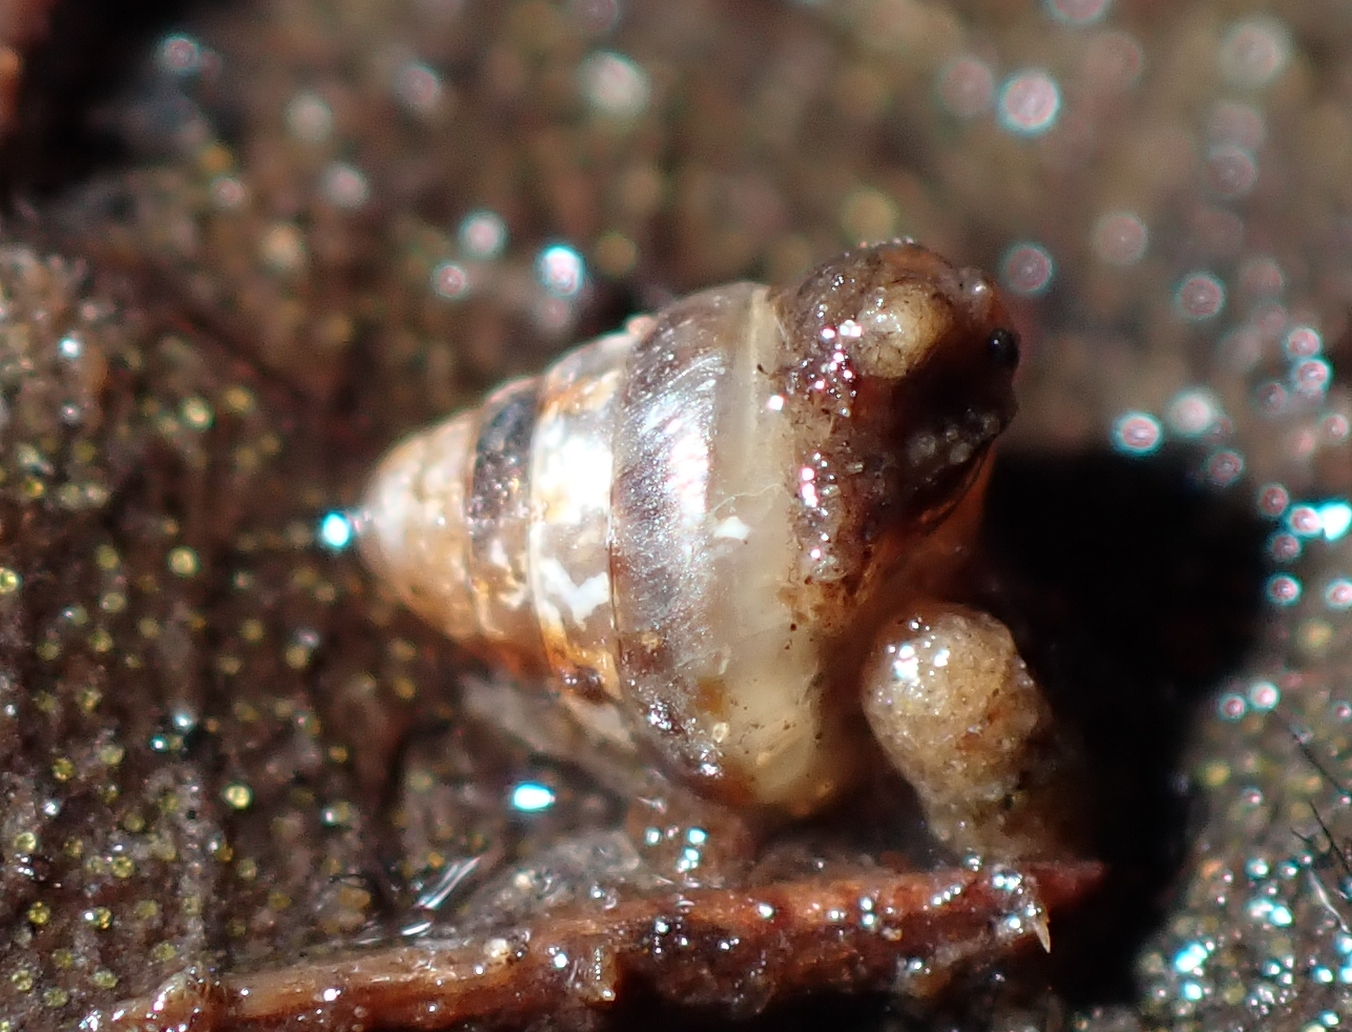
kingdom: Animalia
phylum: Mollusca
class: Gastropoda
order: Stylommatophora
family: Punctidae
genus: Laoma
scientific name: Laoma leimonias
